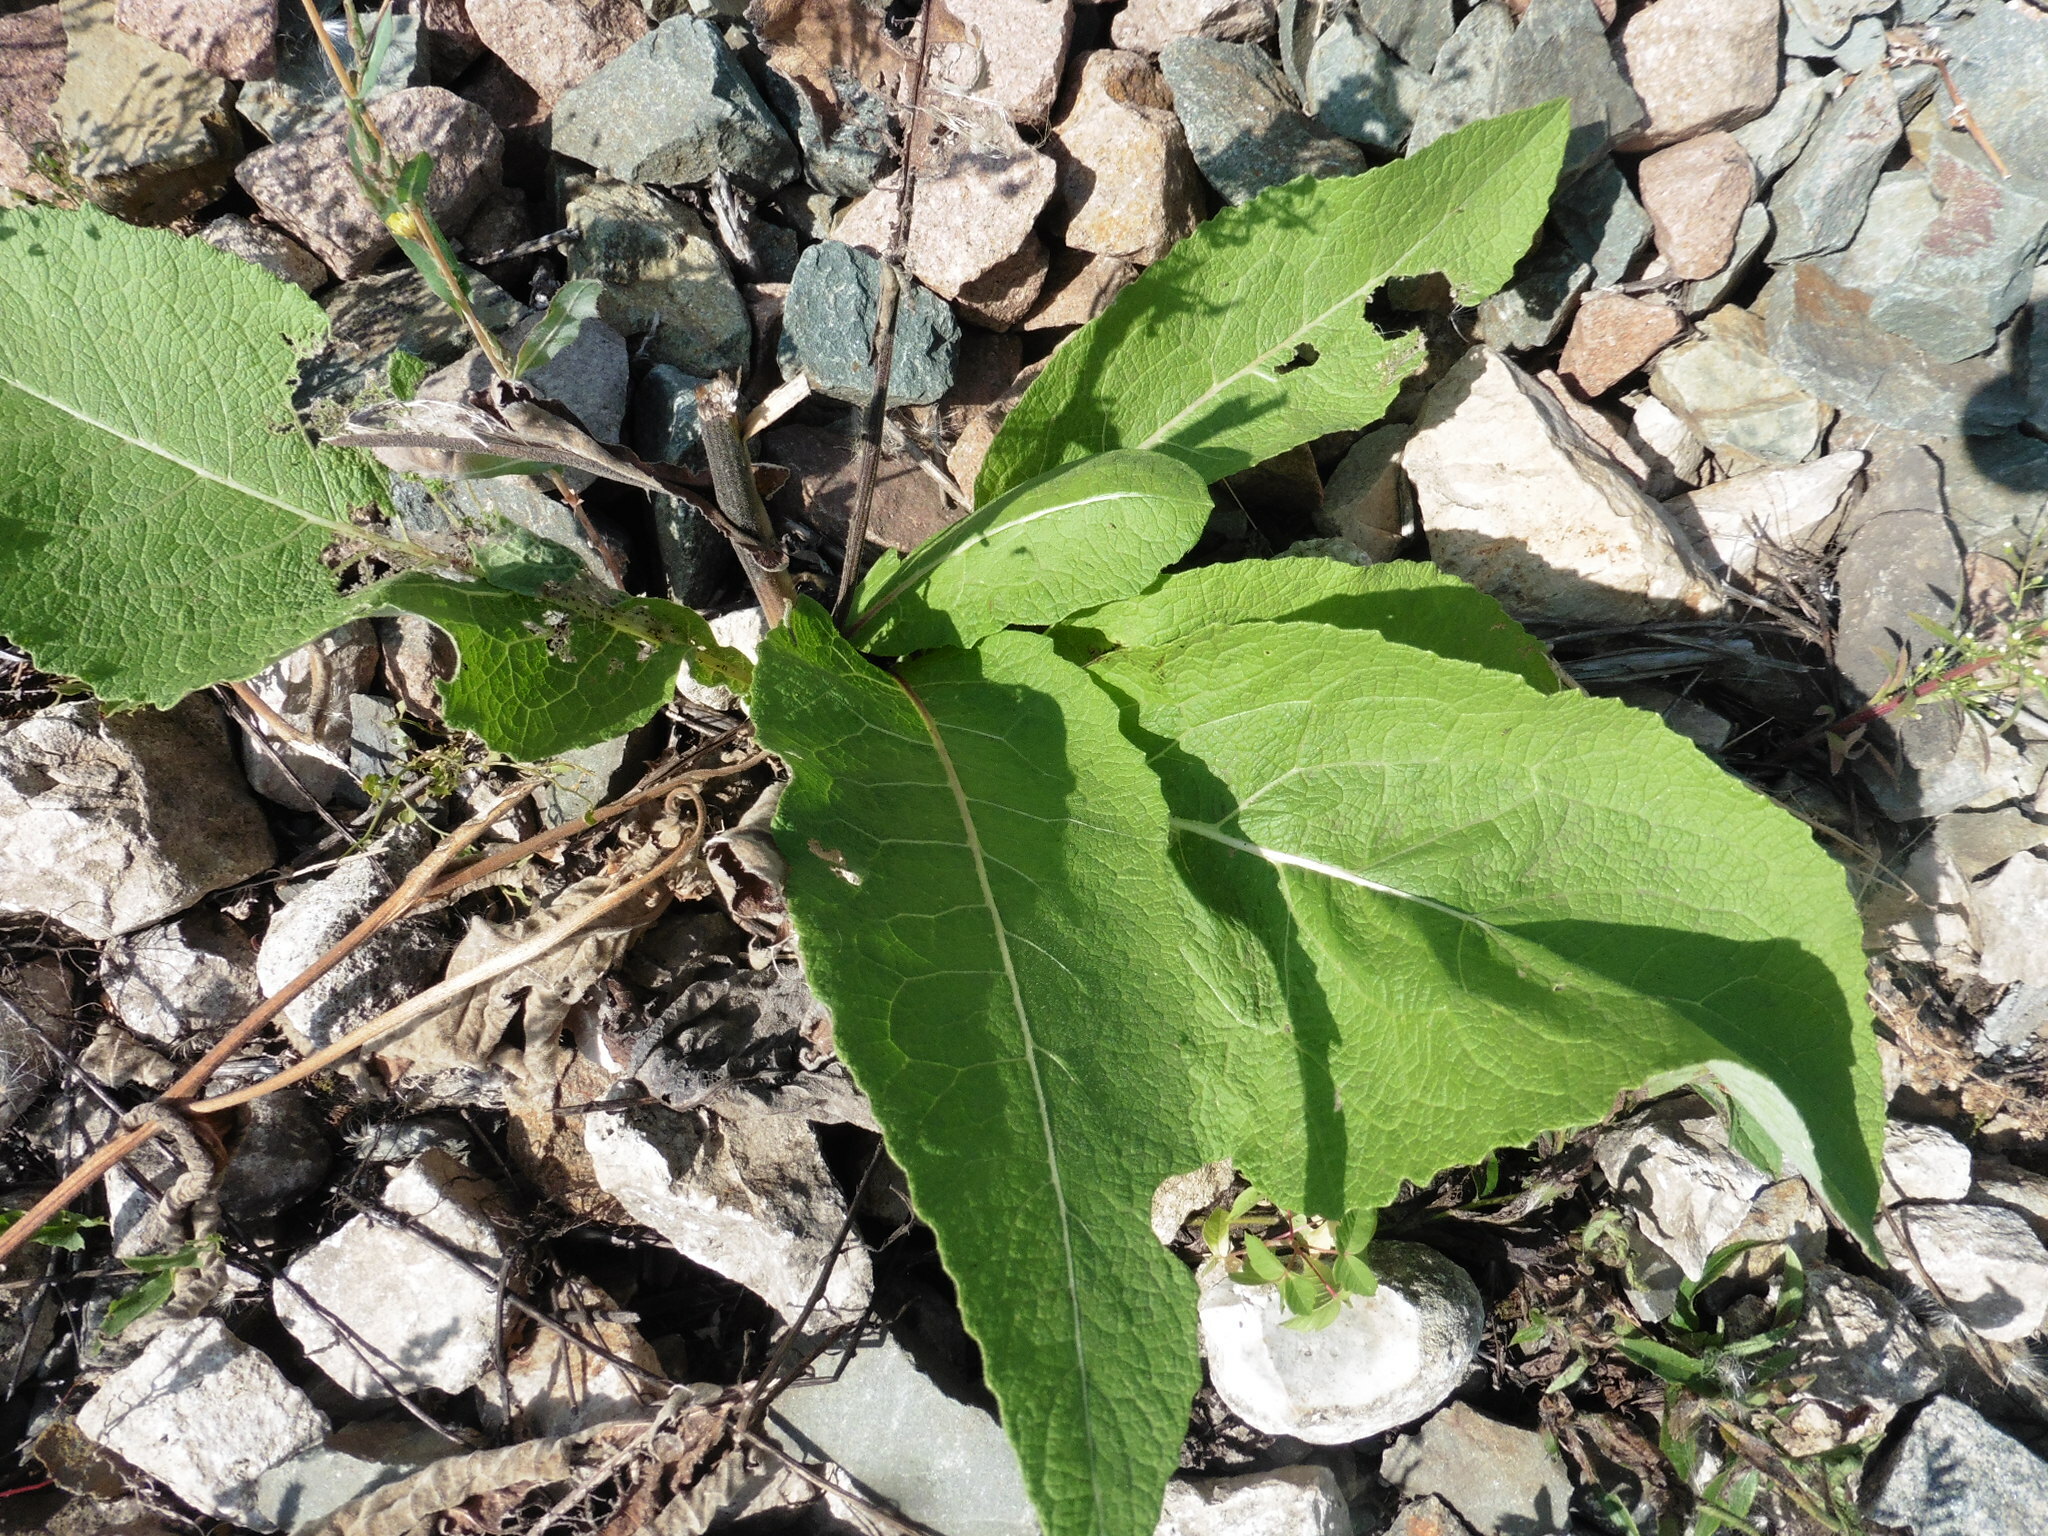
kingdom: Plantae
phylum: Tracheophyta
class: Magnoliopsida
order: Asterales
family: Asteraceae
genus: Inula
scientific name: Inula helenium
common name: Elecampane
